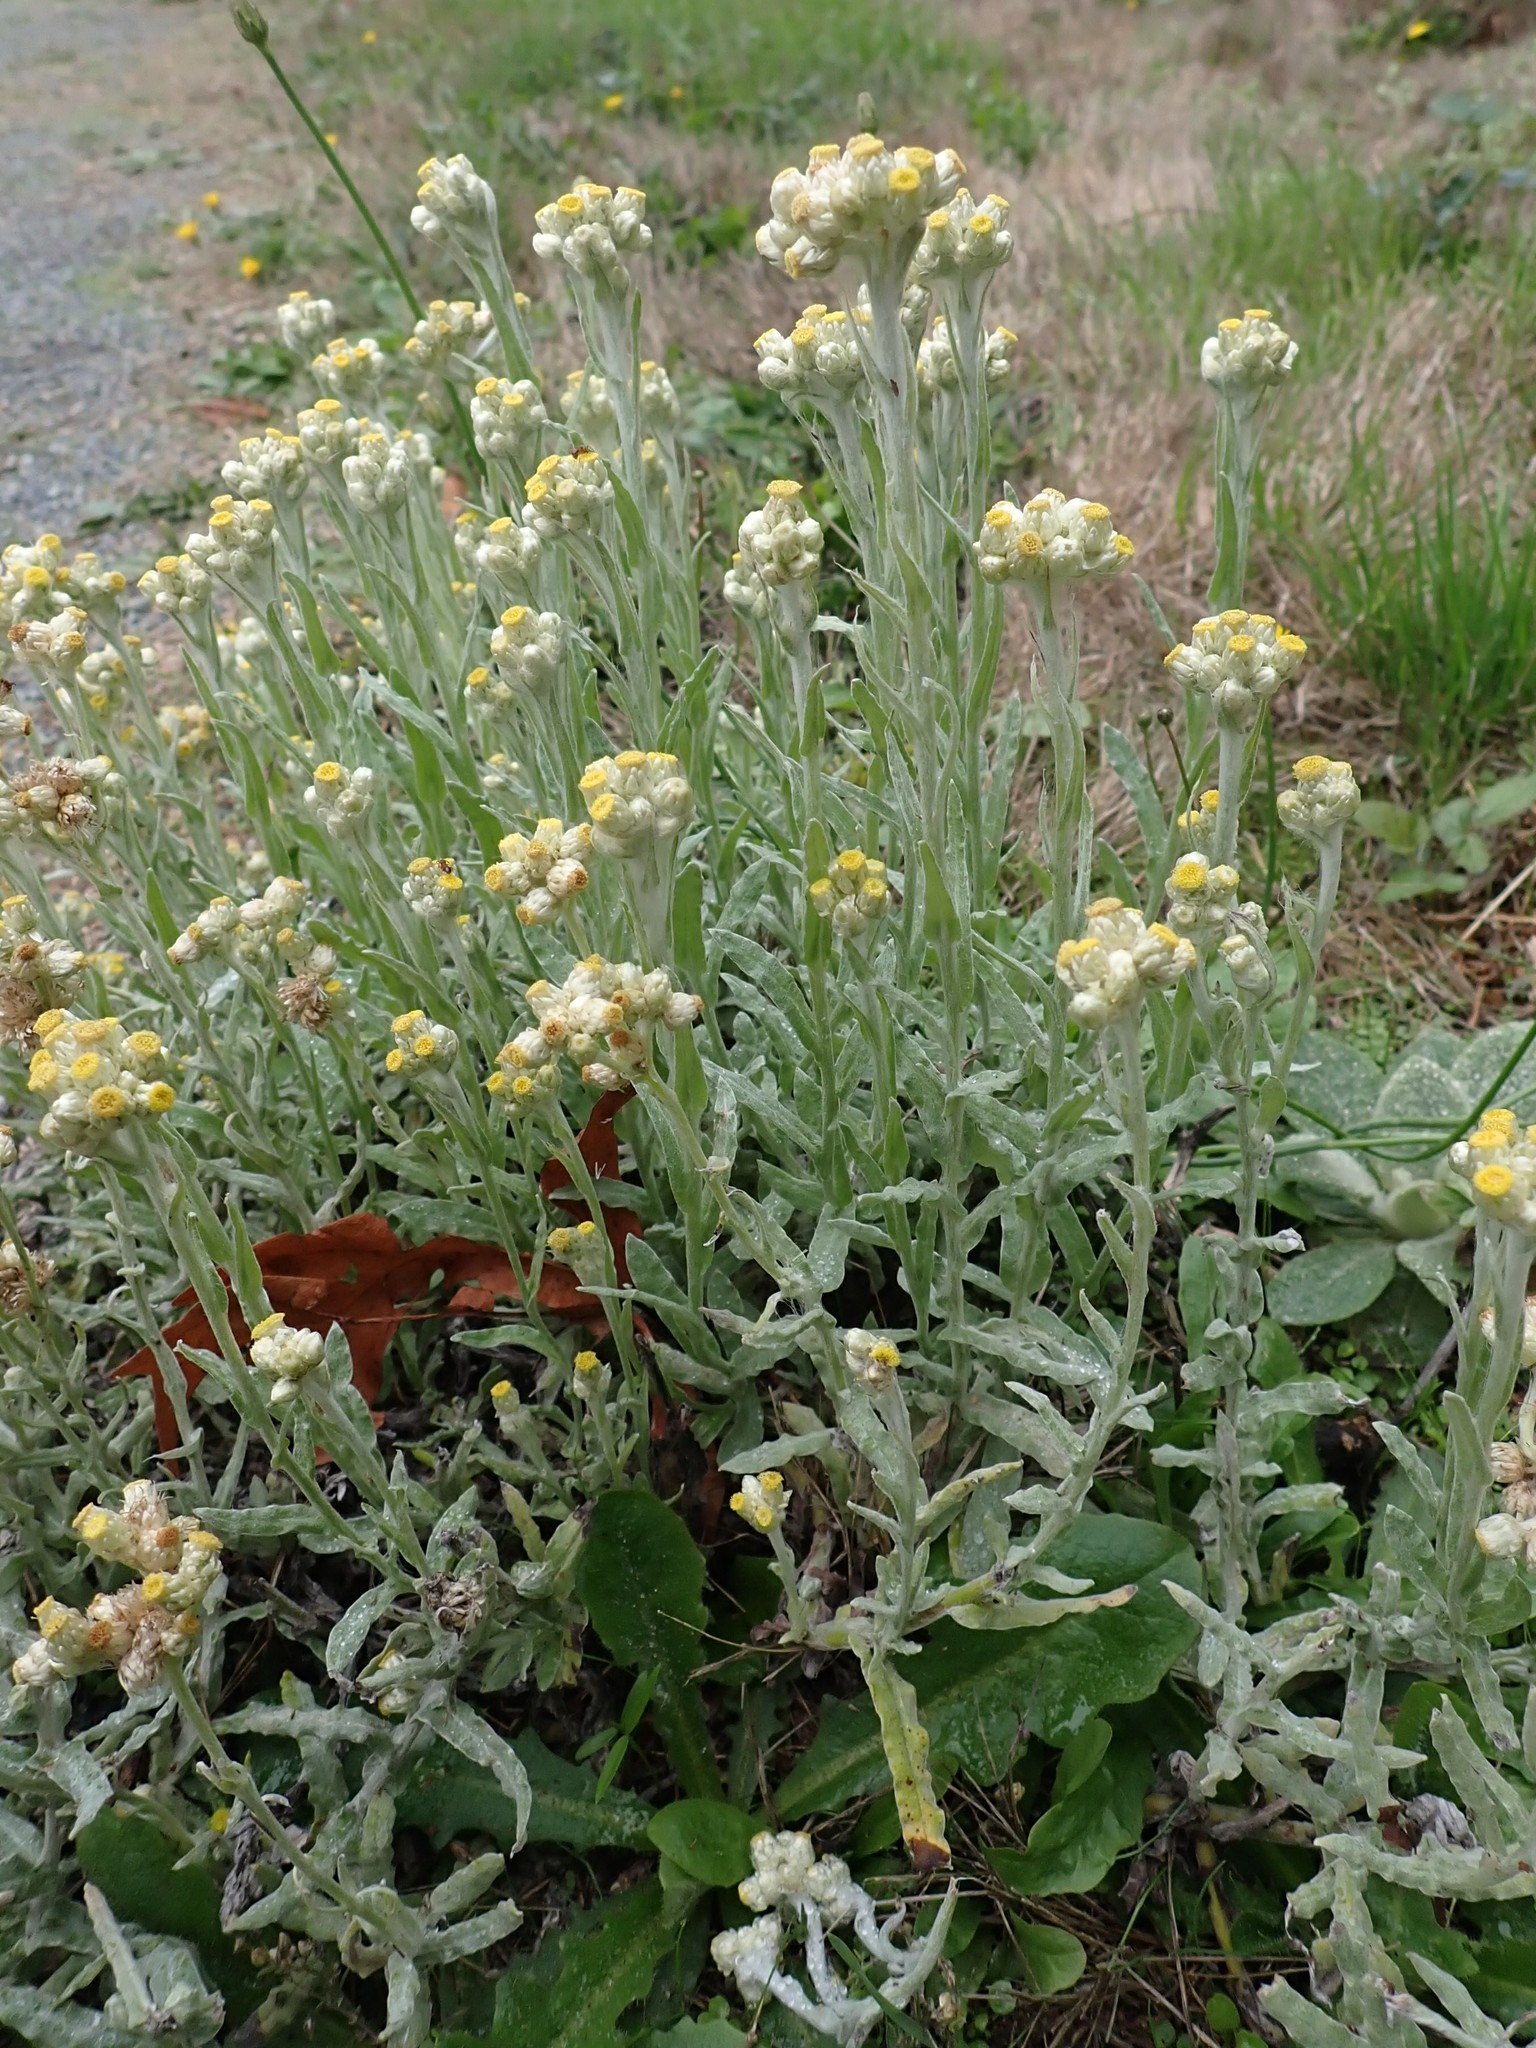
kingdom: Plantae
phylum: Tracheophyta
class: Magnoliopsida
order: Asterales
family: Asteraceae
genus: Pseudognaphalium
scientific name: Pseudognaphalium stramineum
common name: Cotton-batting-plant
